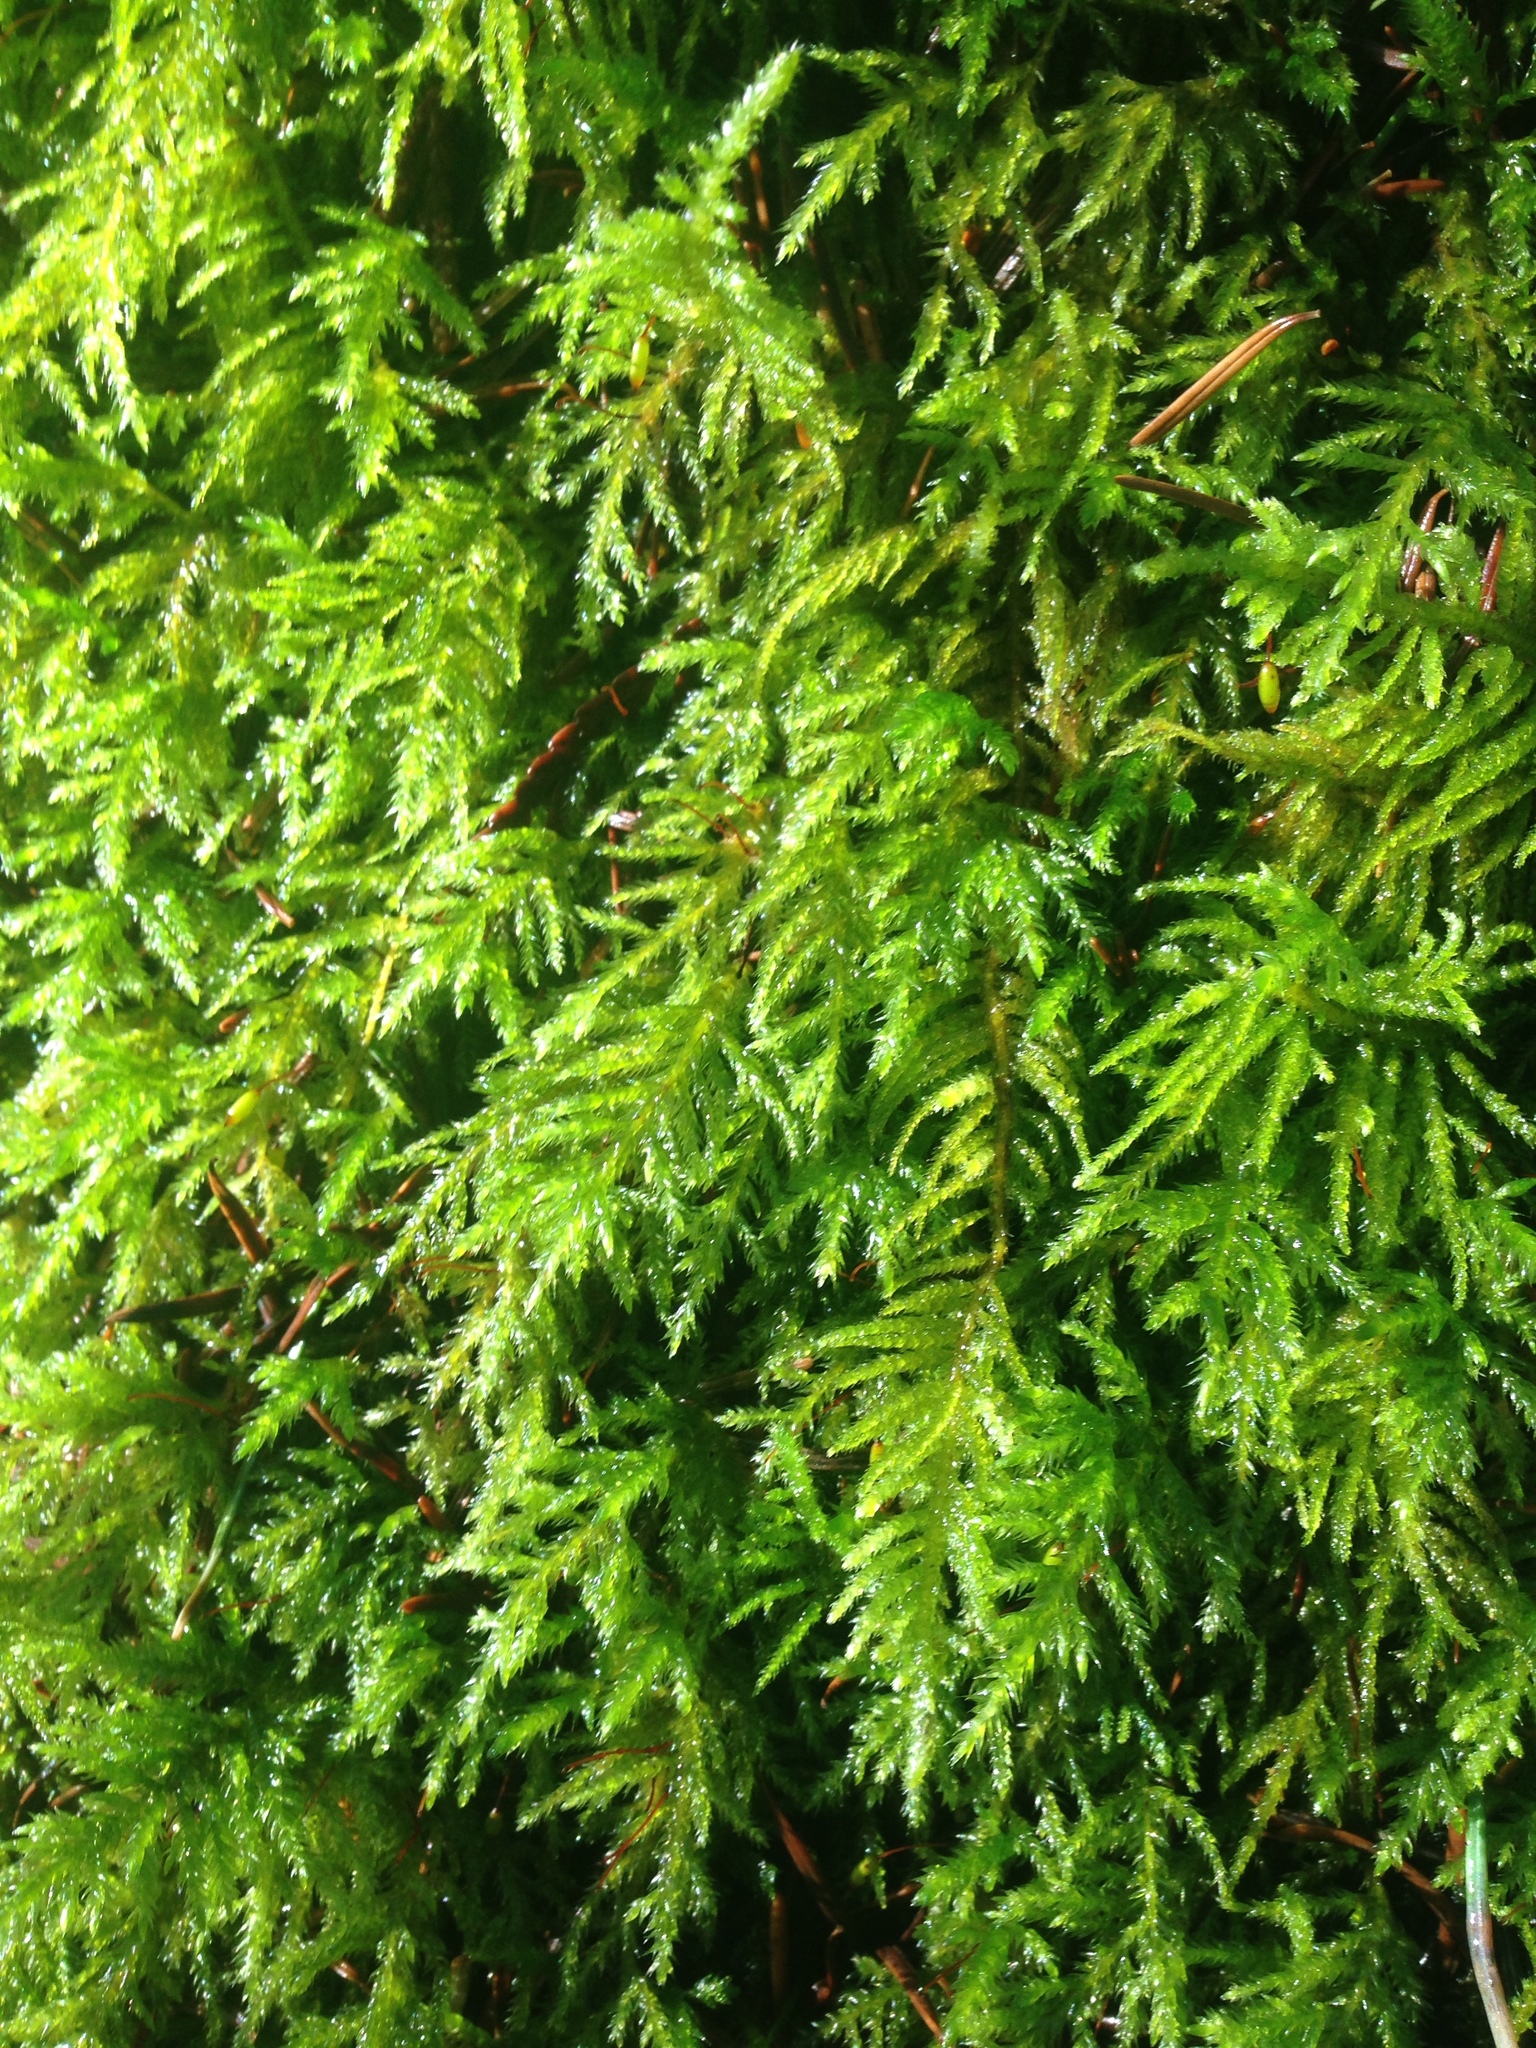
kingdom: Plantae
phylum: Bryophyta
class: Bryopsida
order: Hypnales
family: Brachytheciaceae
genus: Kindbergia
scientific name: Kindbergia oregana
